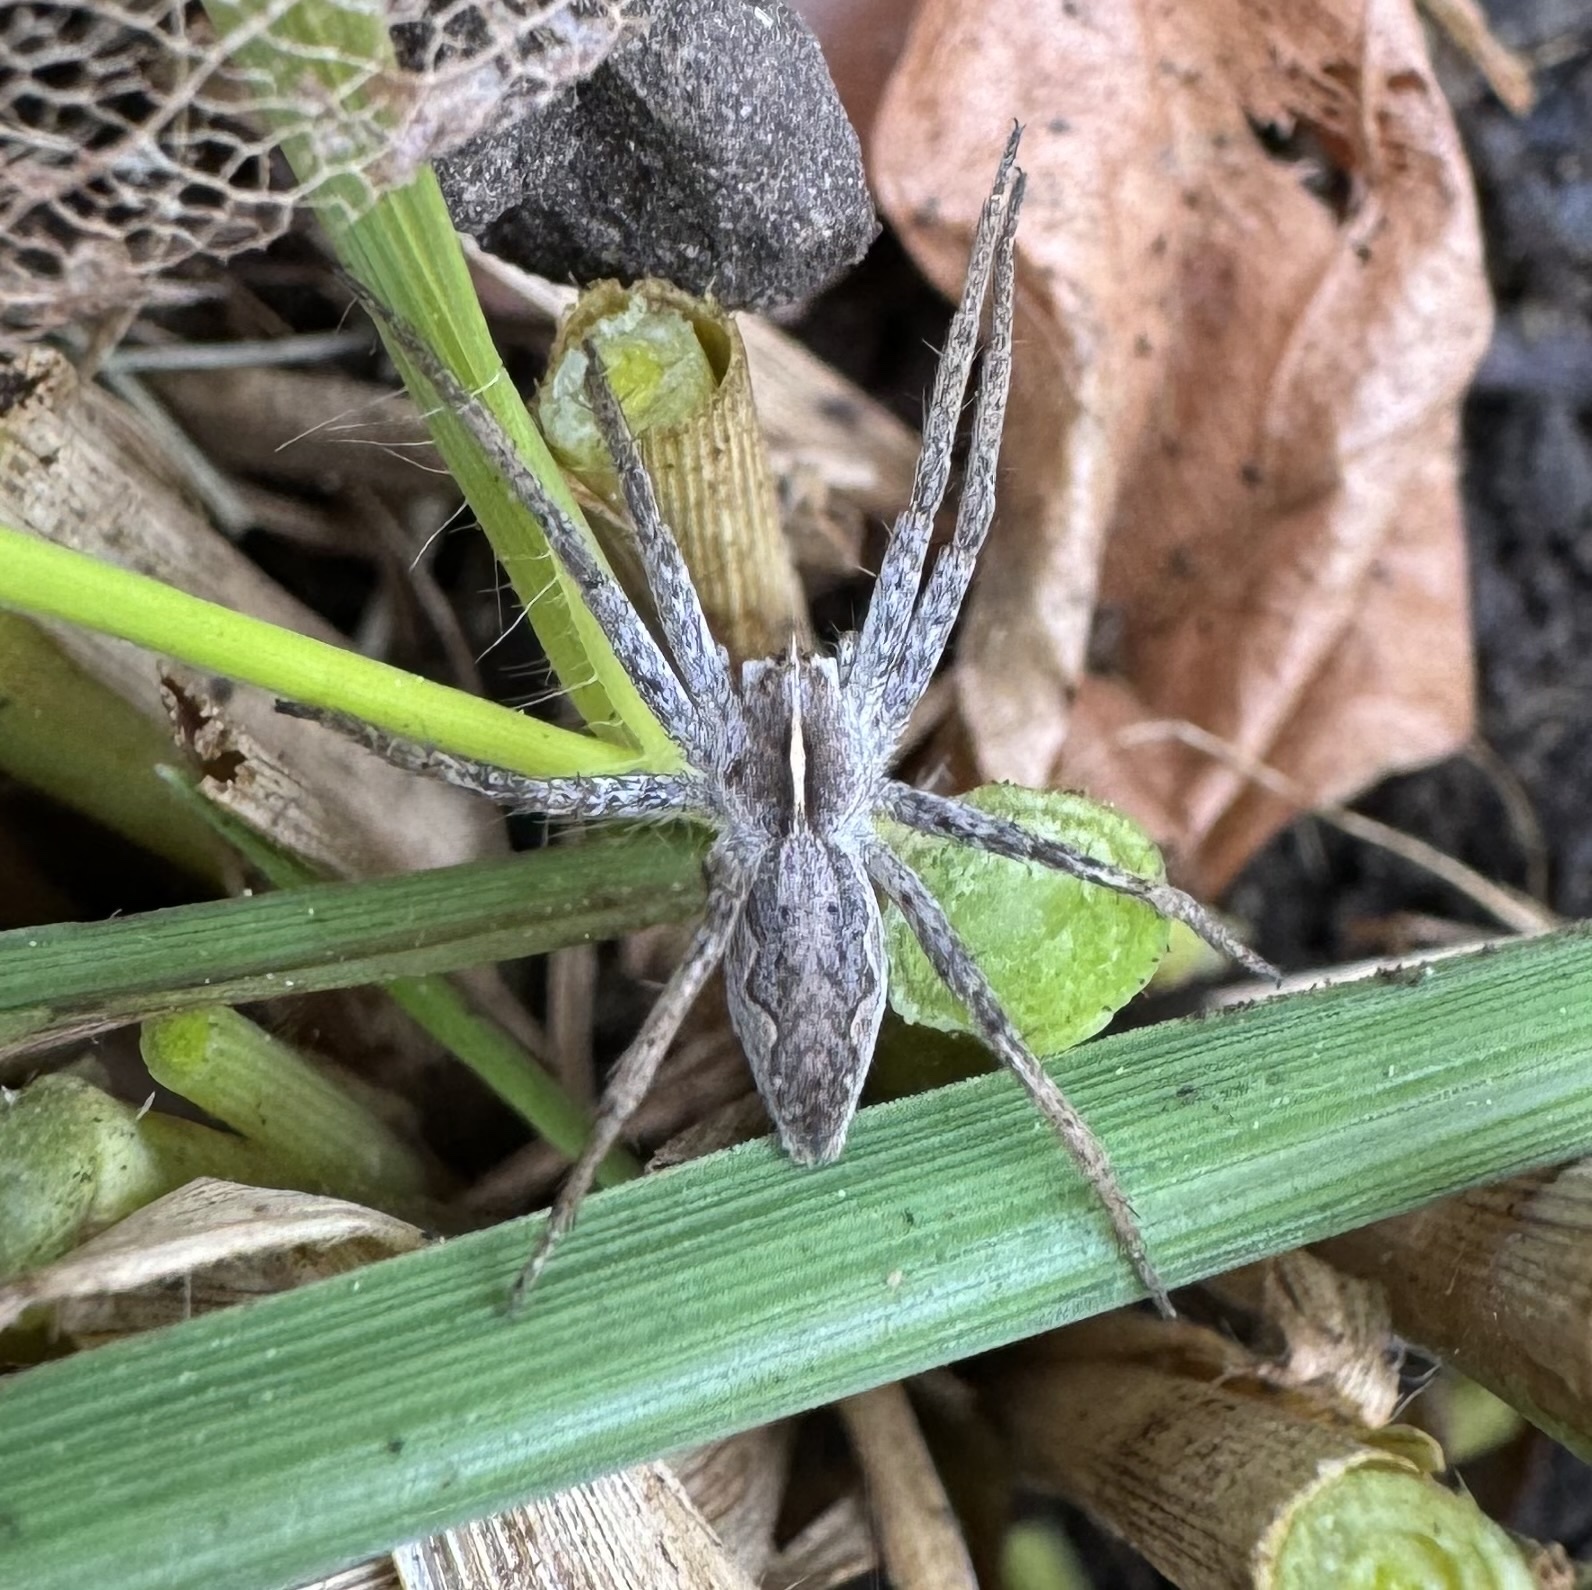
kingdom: Animalia
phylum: Arthropoda
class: Arachnida
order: Araneae
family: Pisauridae
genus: Pisaura
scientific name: Pisaura mirabilis
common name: Tent spider
